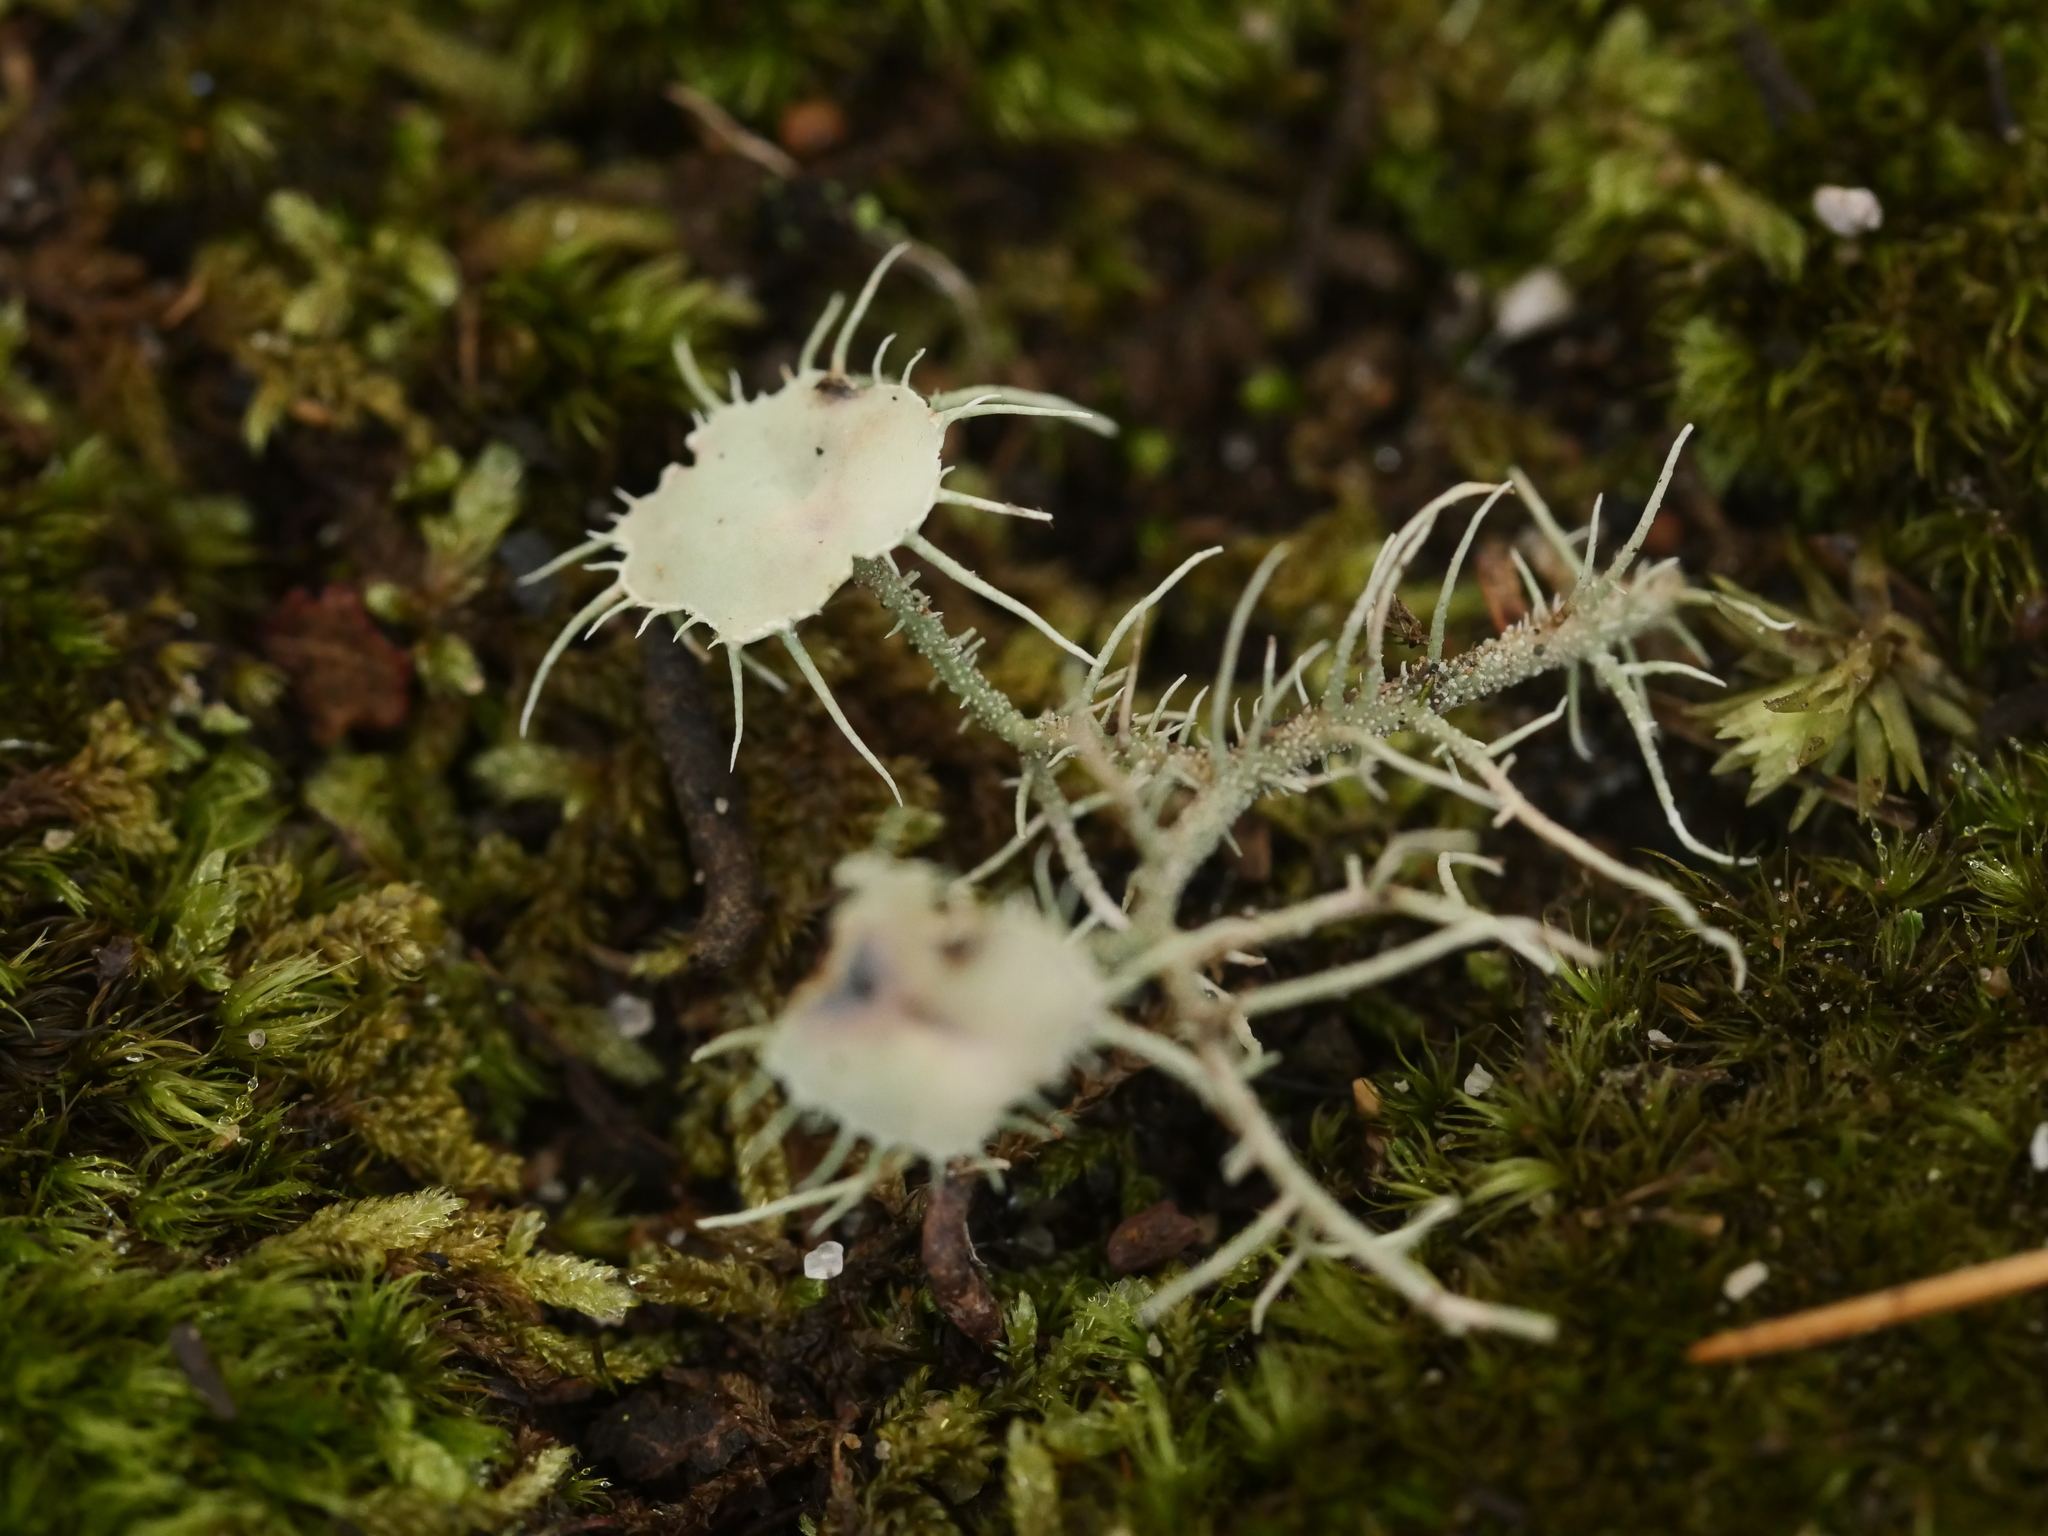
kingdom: Fungi
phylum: Ascomycota
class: Lecanoromycetes
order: Lecanorales
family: Parmeliaceae
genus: Usnea
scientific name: Usnea strigosa
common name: Bushy beard lichen
